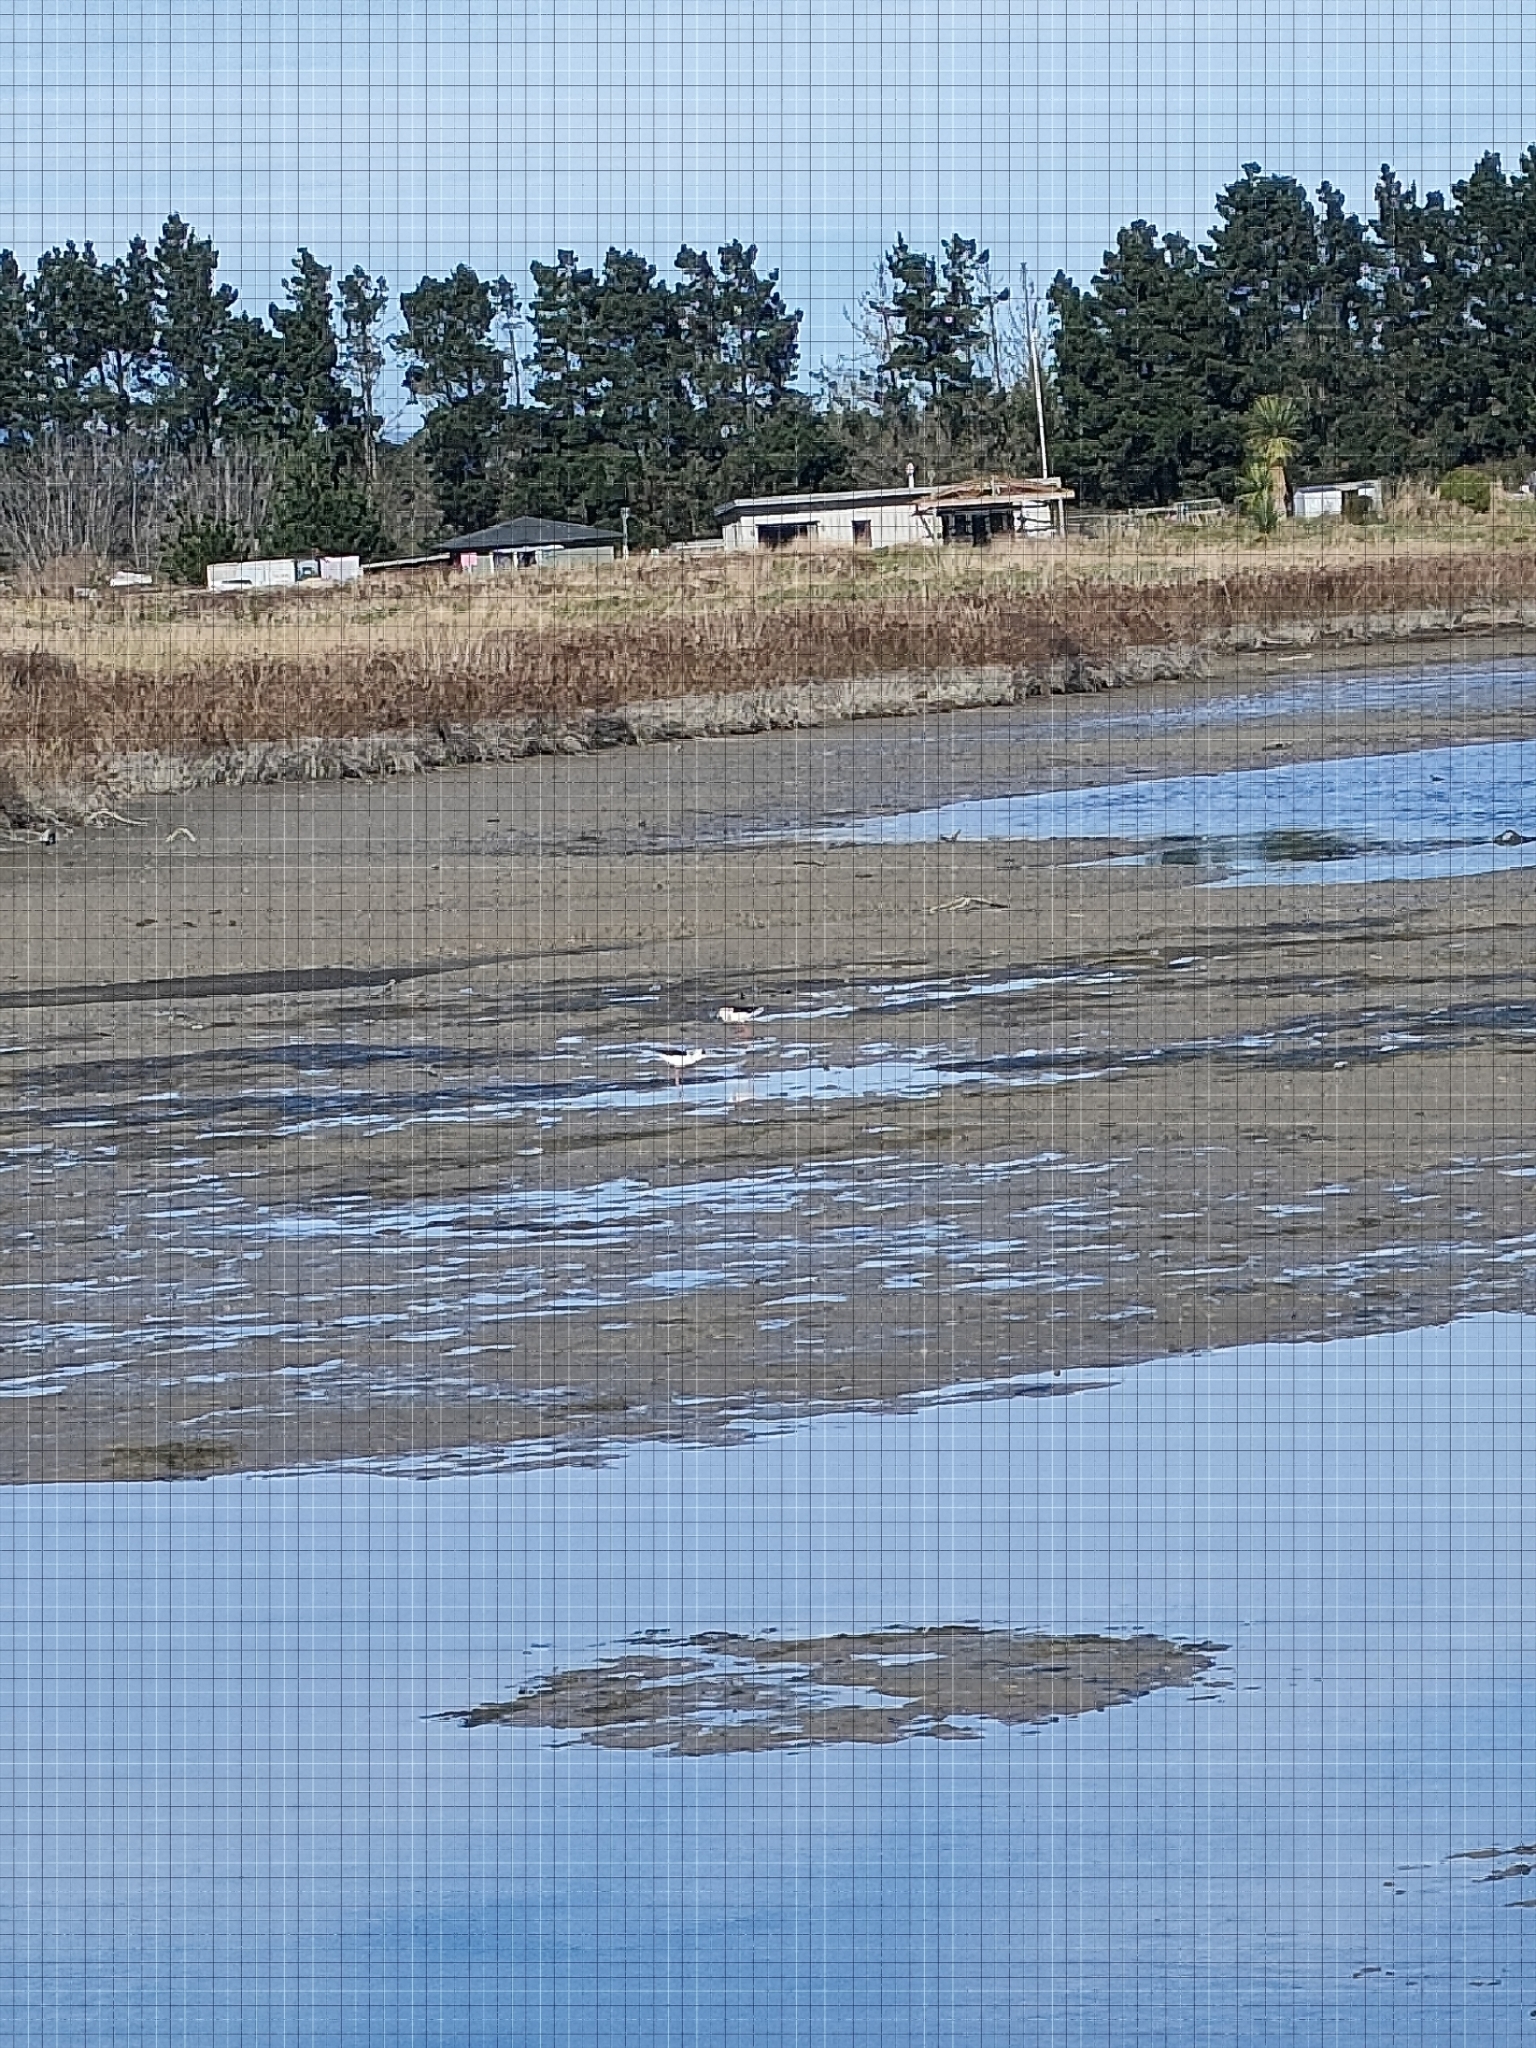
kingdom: Animalia
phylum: Chordata
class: Aves
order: Charadriiformes
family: Recurvirostridae
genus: Himantopus
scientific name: Himantopus leucocephalus
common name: White-headed stilt
